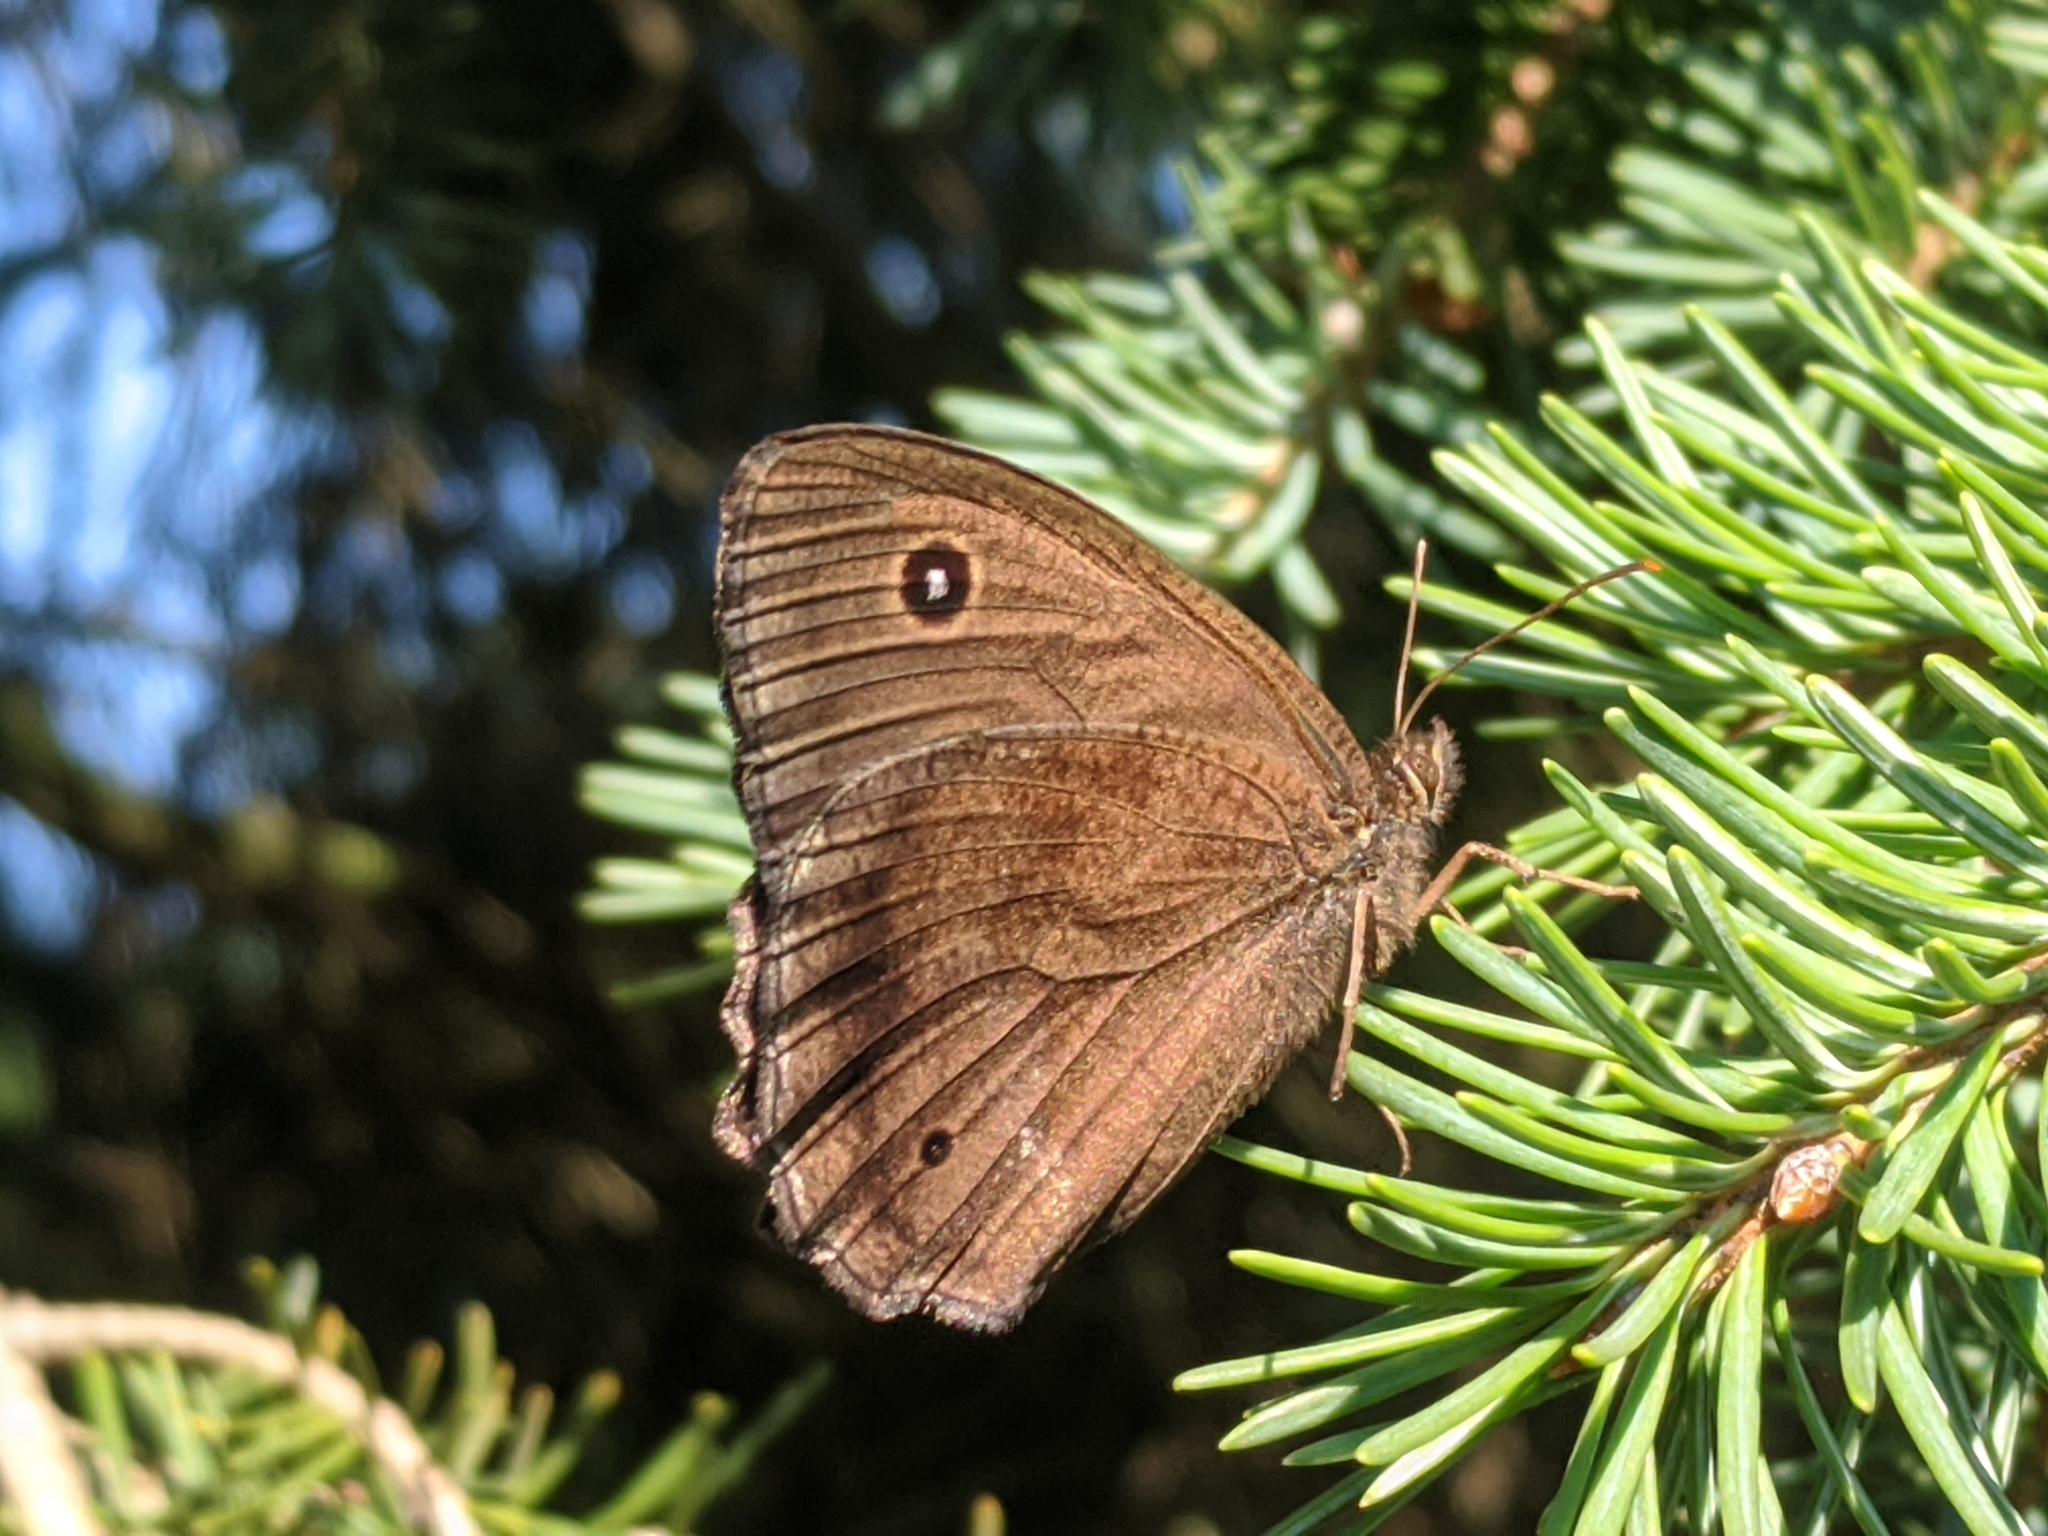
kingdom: Animalia
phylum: Arthropoda
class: Insecta
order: Lepidoptera
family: Nymphalidae
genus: Minois
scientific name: Minois dryas
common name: Dryad
